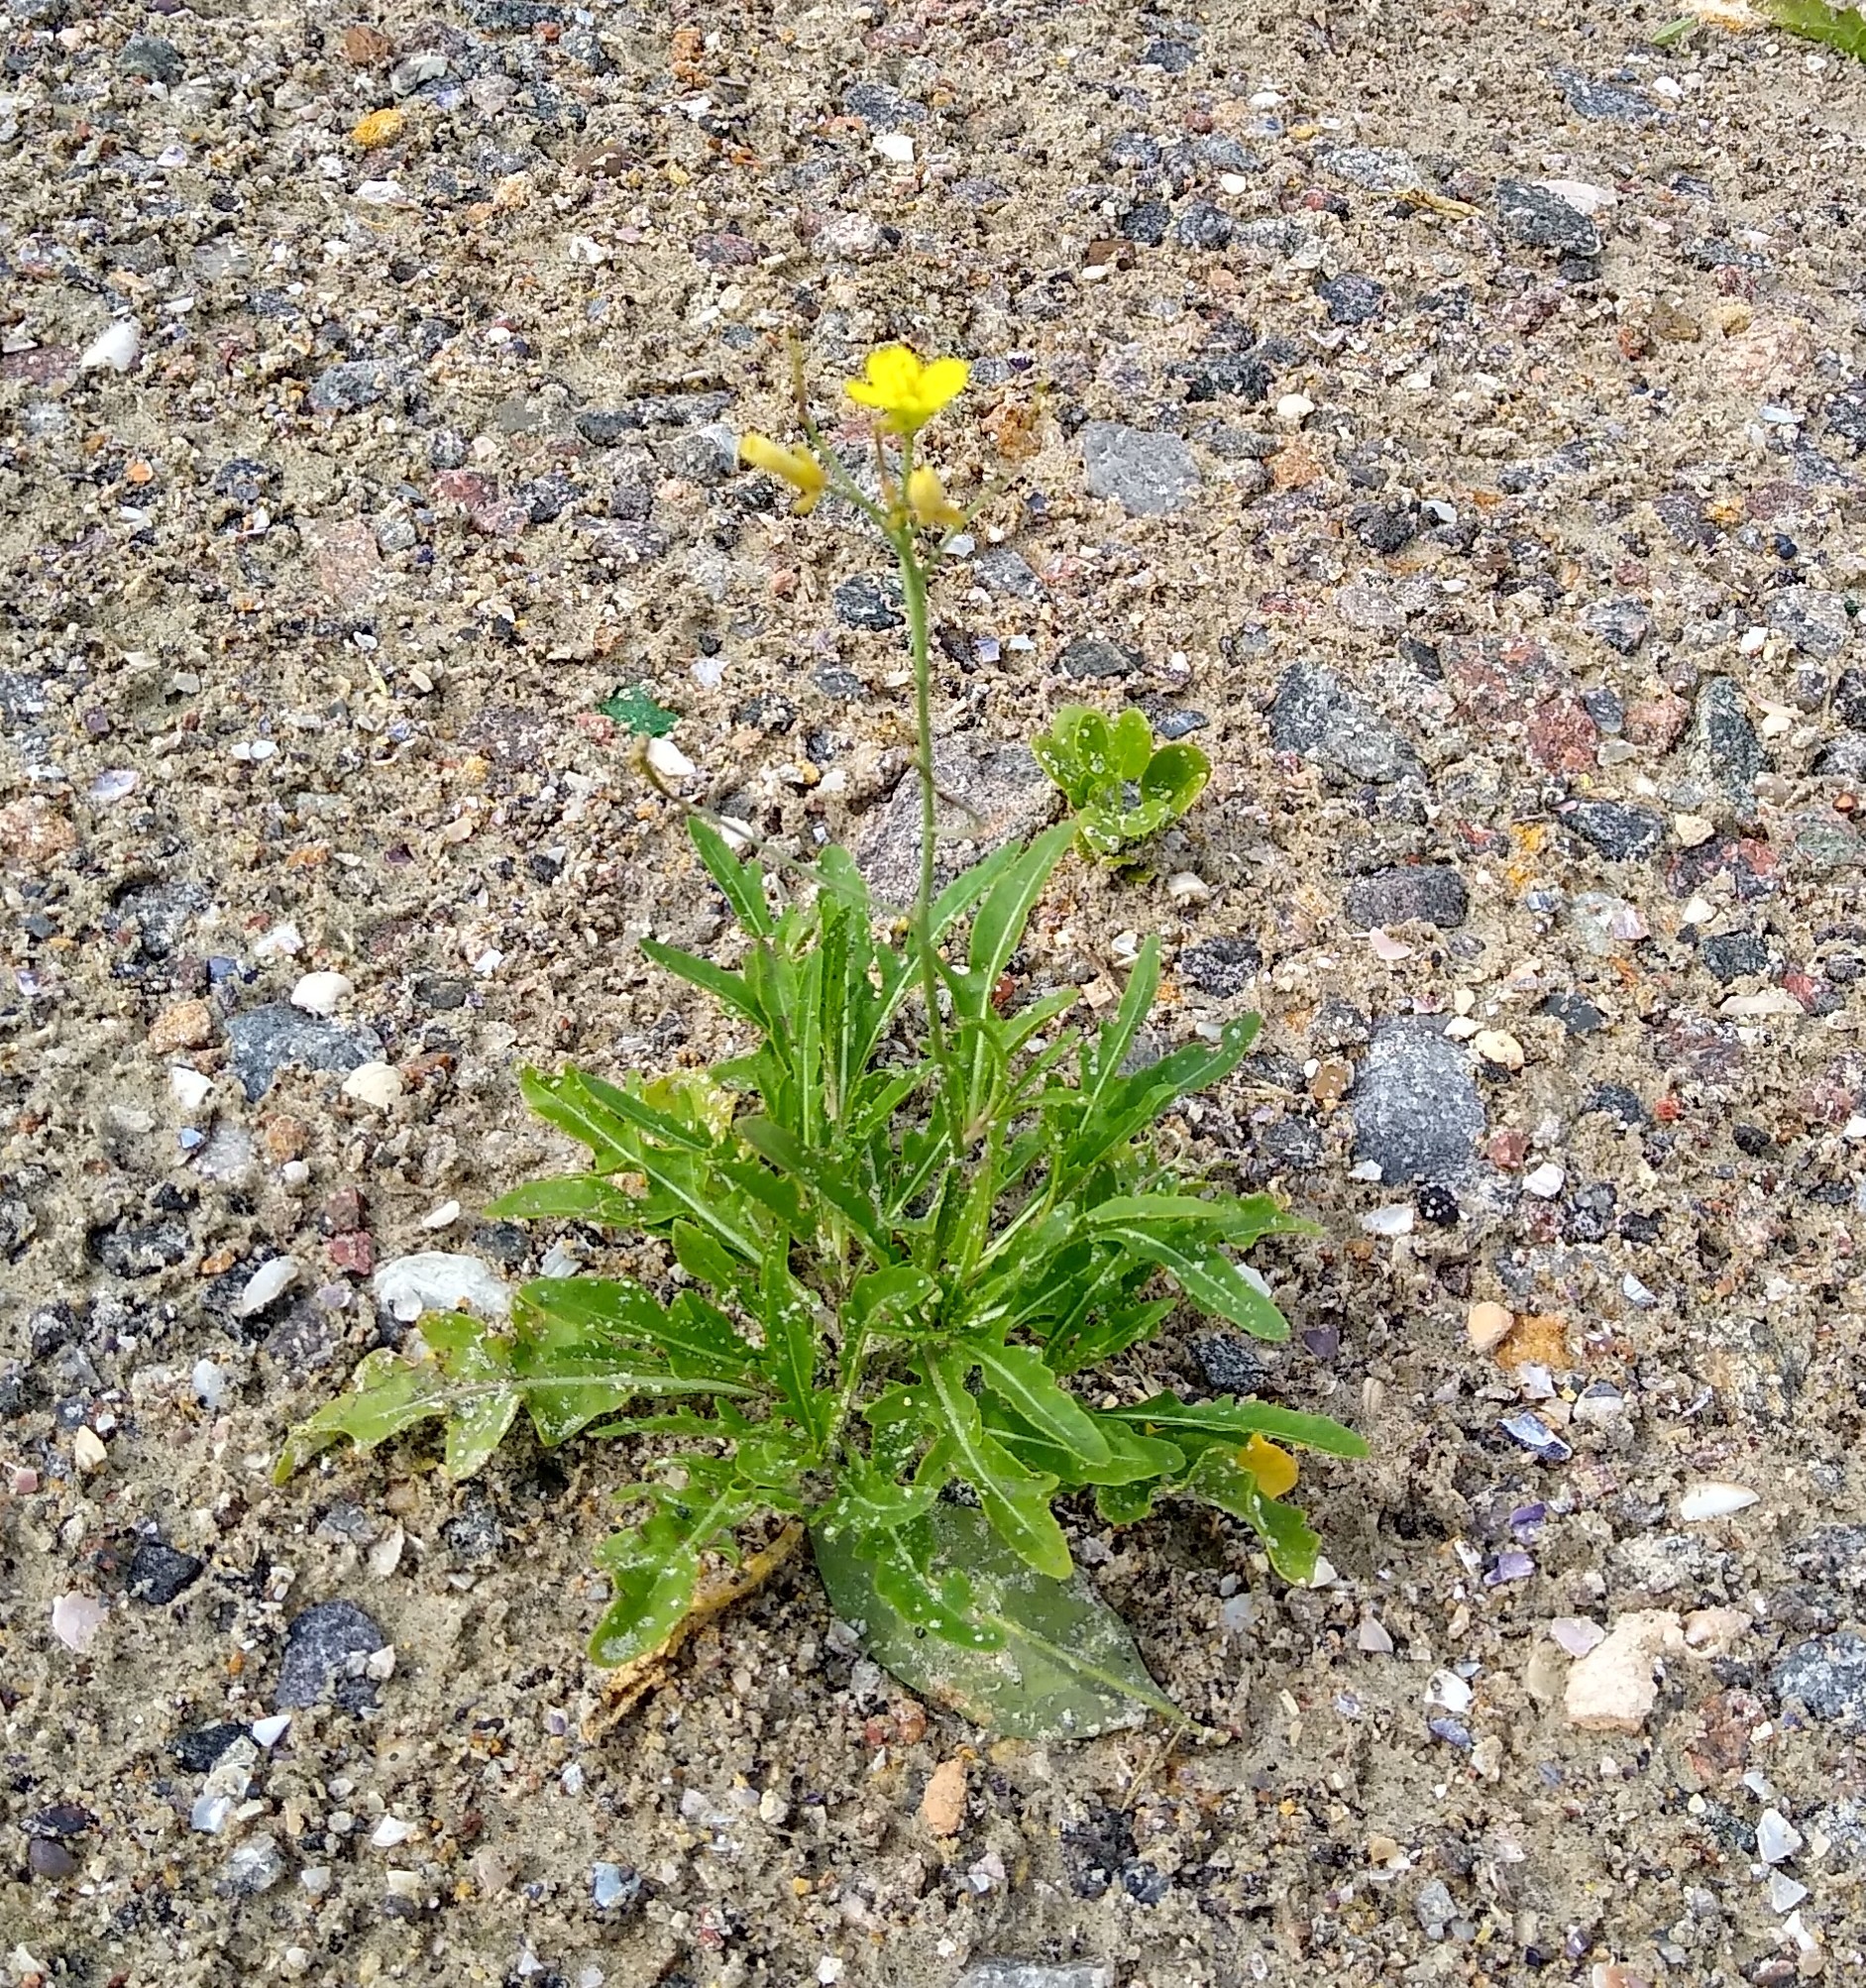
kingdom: Plantae
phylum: Tracheophyta
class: Magnoliopsida
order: Brassicales
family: Brassicaceae
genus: Diplotaxis
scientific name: Diplotaxis tenuifolia
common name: Perennial wall-rocket
